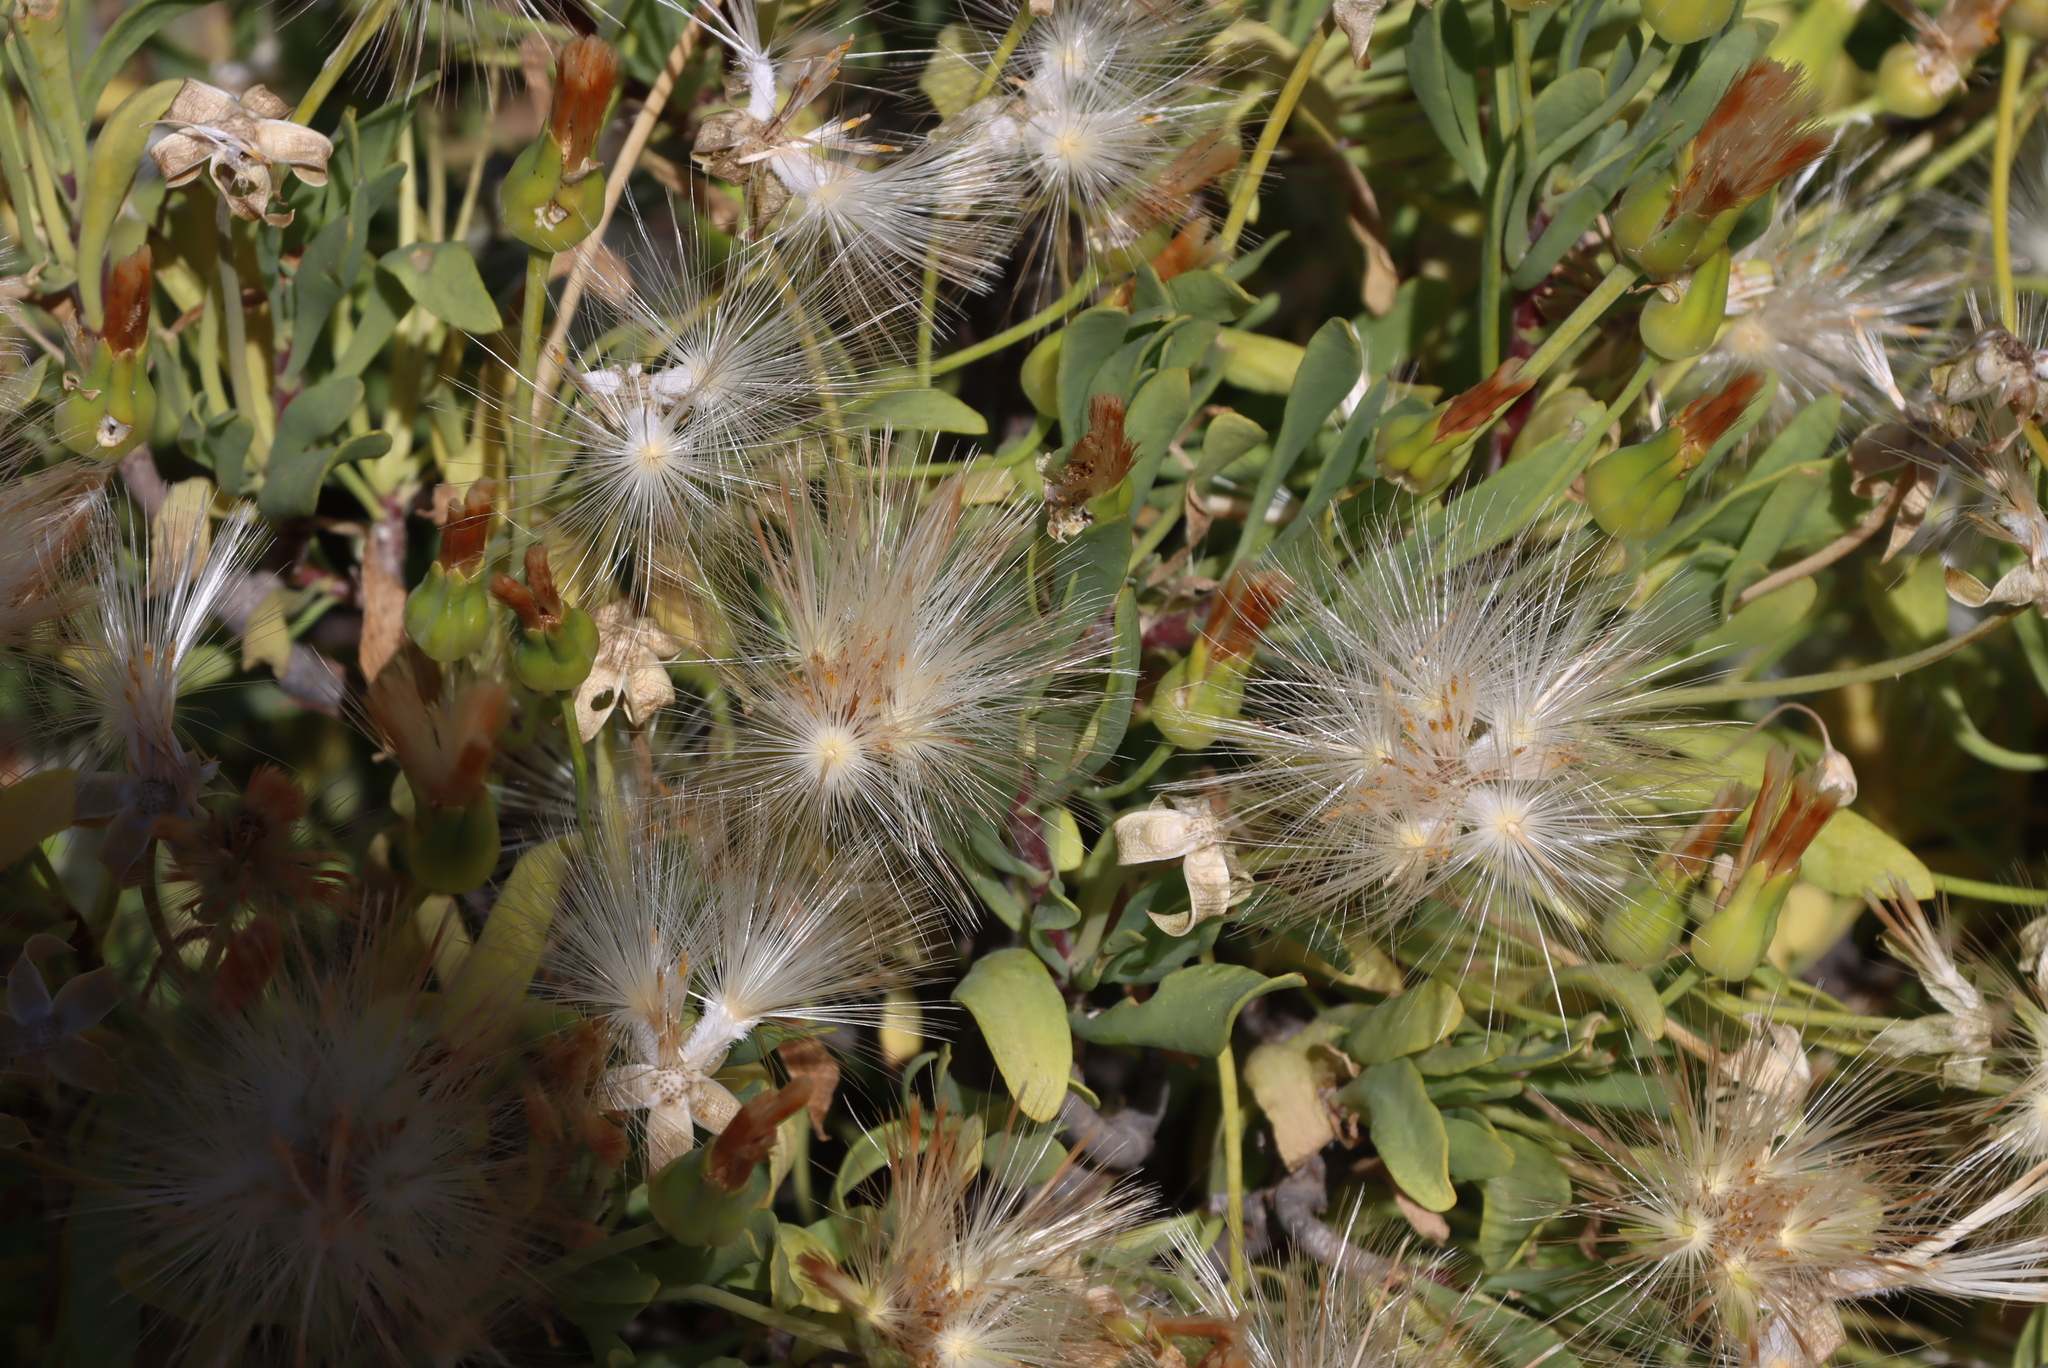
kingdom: Plantae
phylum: Tracheophyta
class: Magnoliopsida
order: Asterales
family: Asteraceae
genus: Othonna
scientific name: Othonna lasiocarpa
